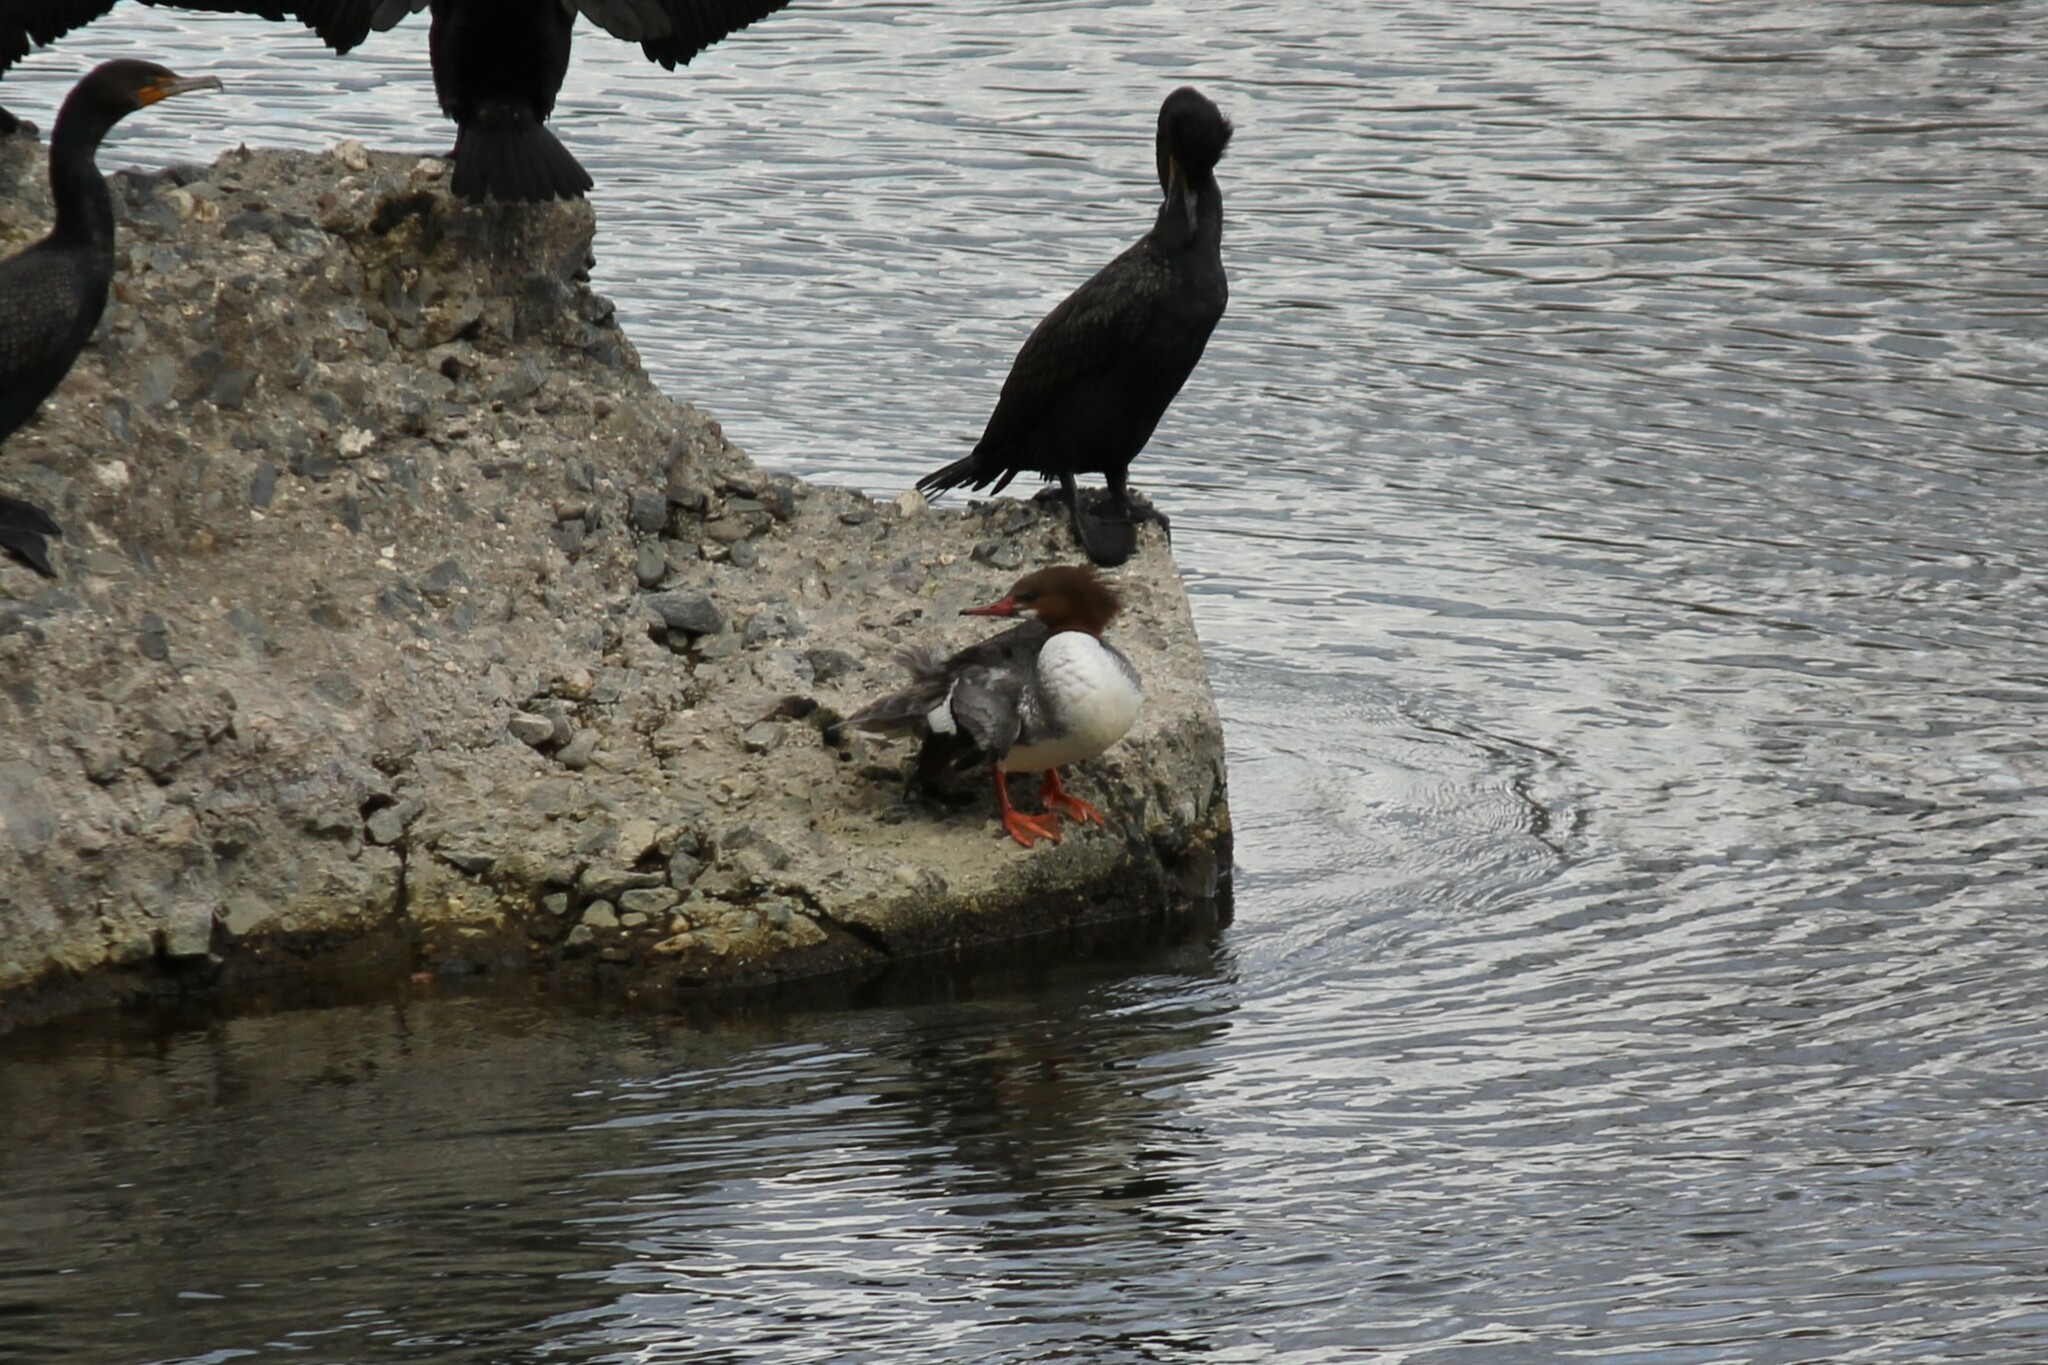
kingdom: Animalia
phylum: Chordata
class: Aves
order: Anseriformes
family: Anatidae
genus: Mergus
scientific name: Mergus merganser
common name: Common merganser
